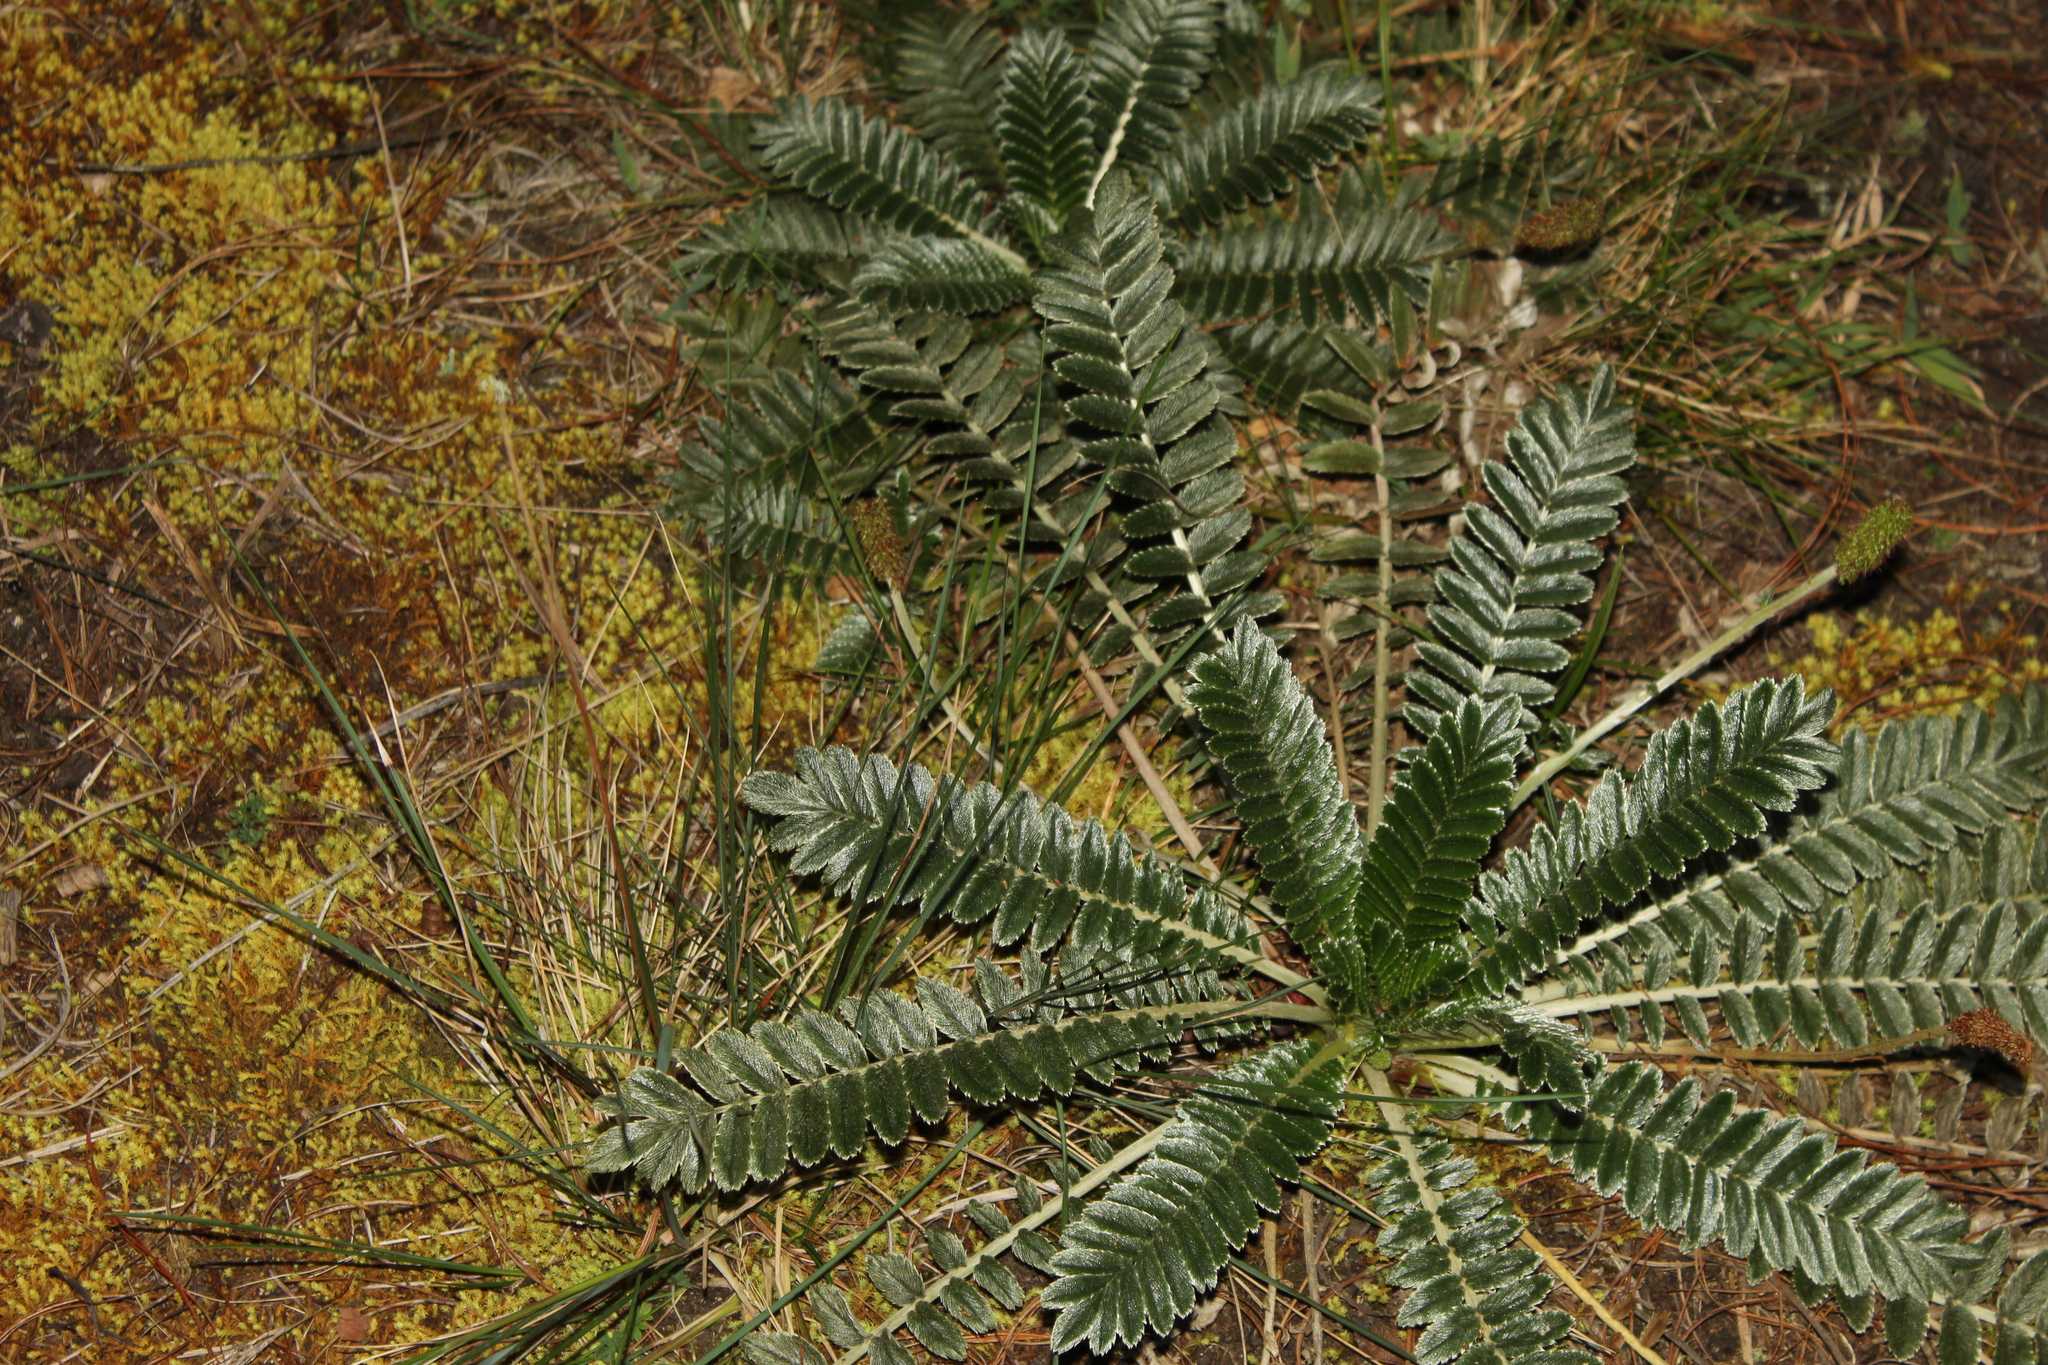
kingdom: Plantae
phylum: Tracheophyta
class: Magnoliopsida
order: Rosales
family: Rosaceae
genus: Acaena
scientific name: Acaena cylindristachya
